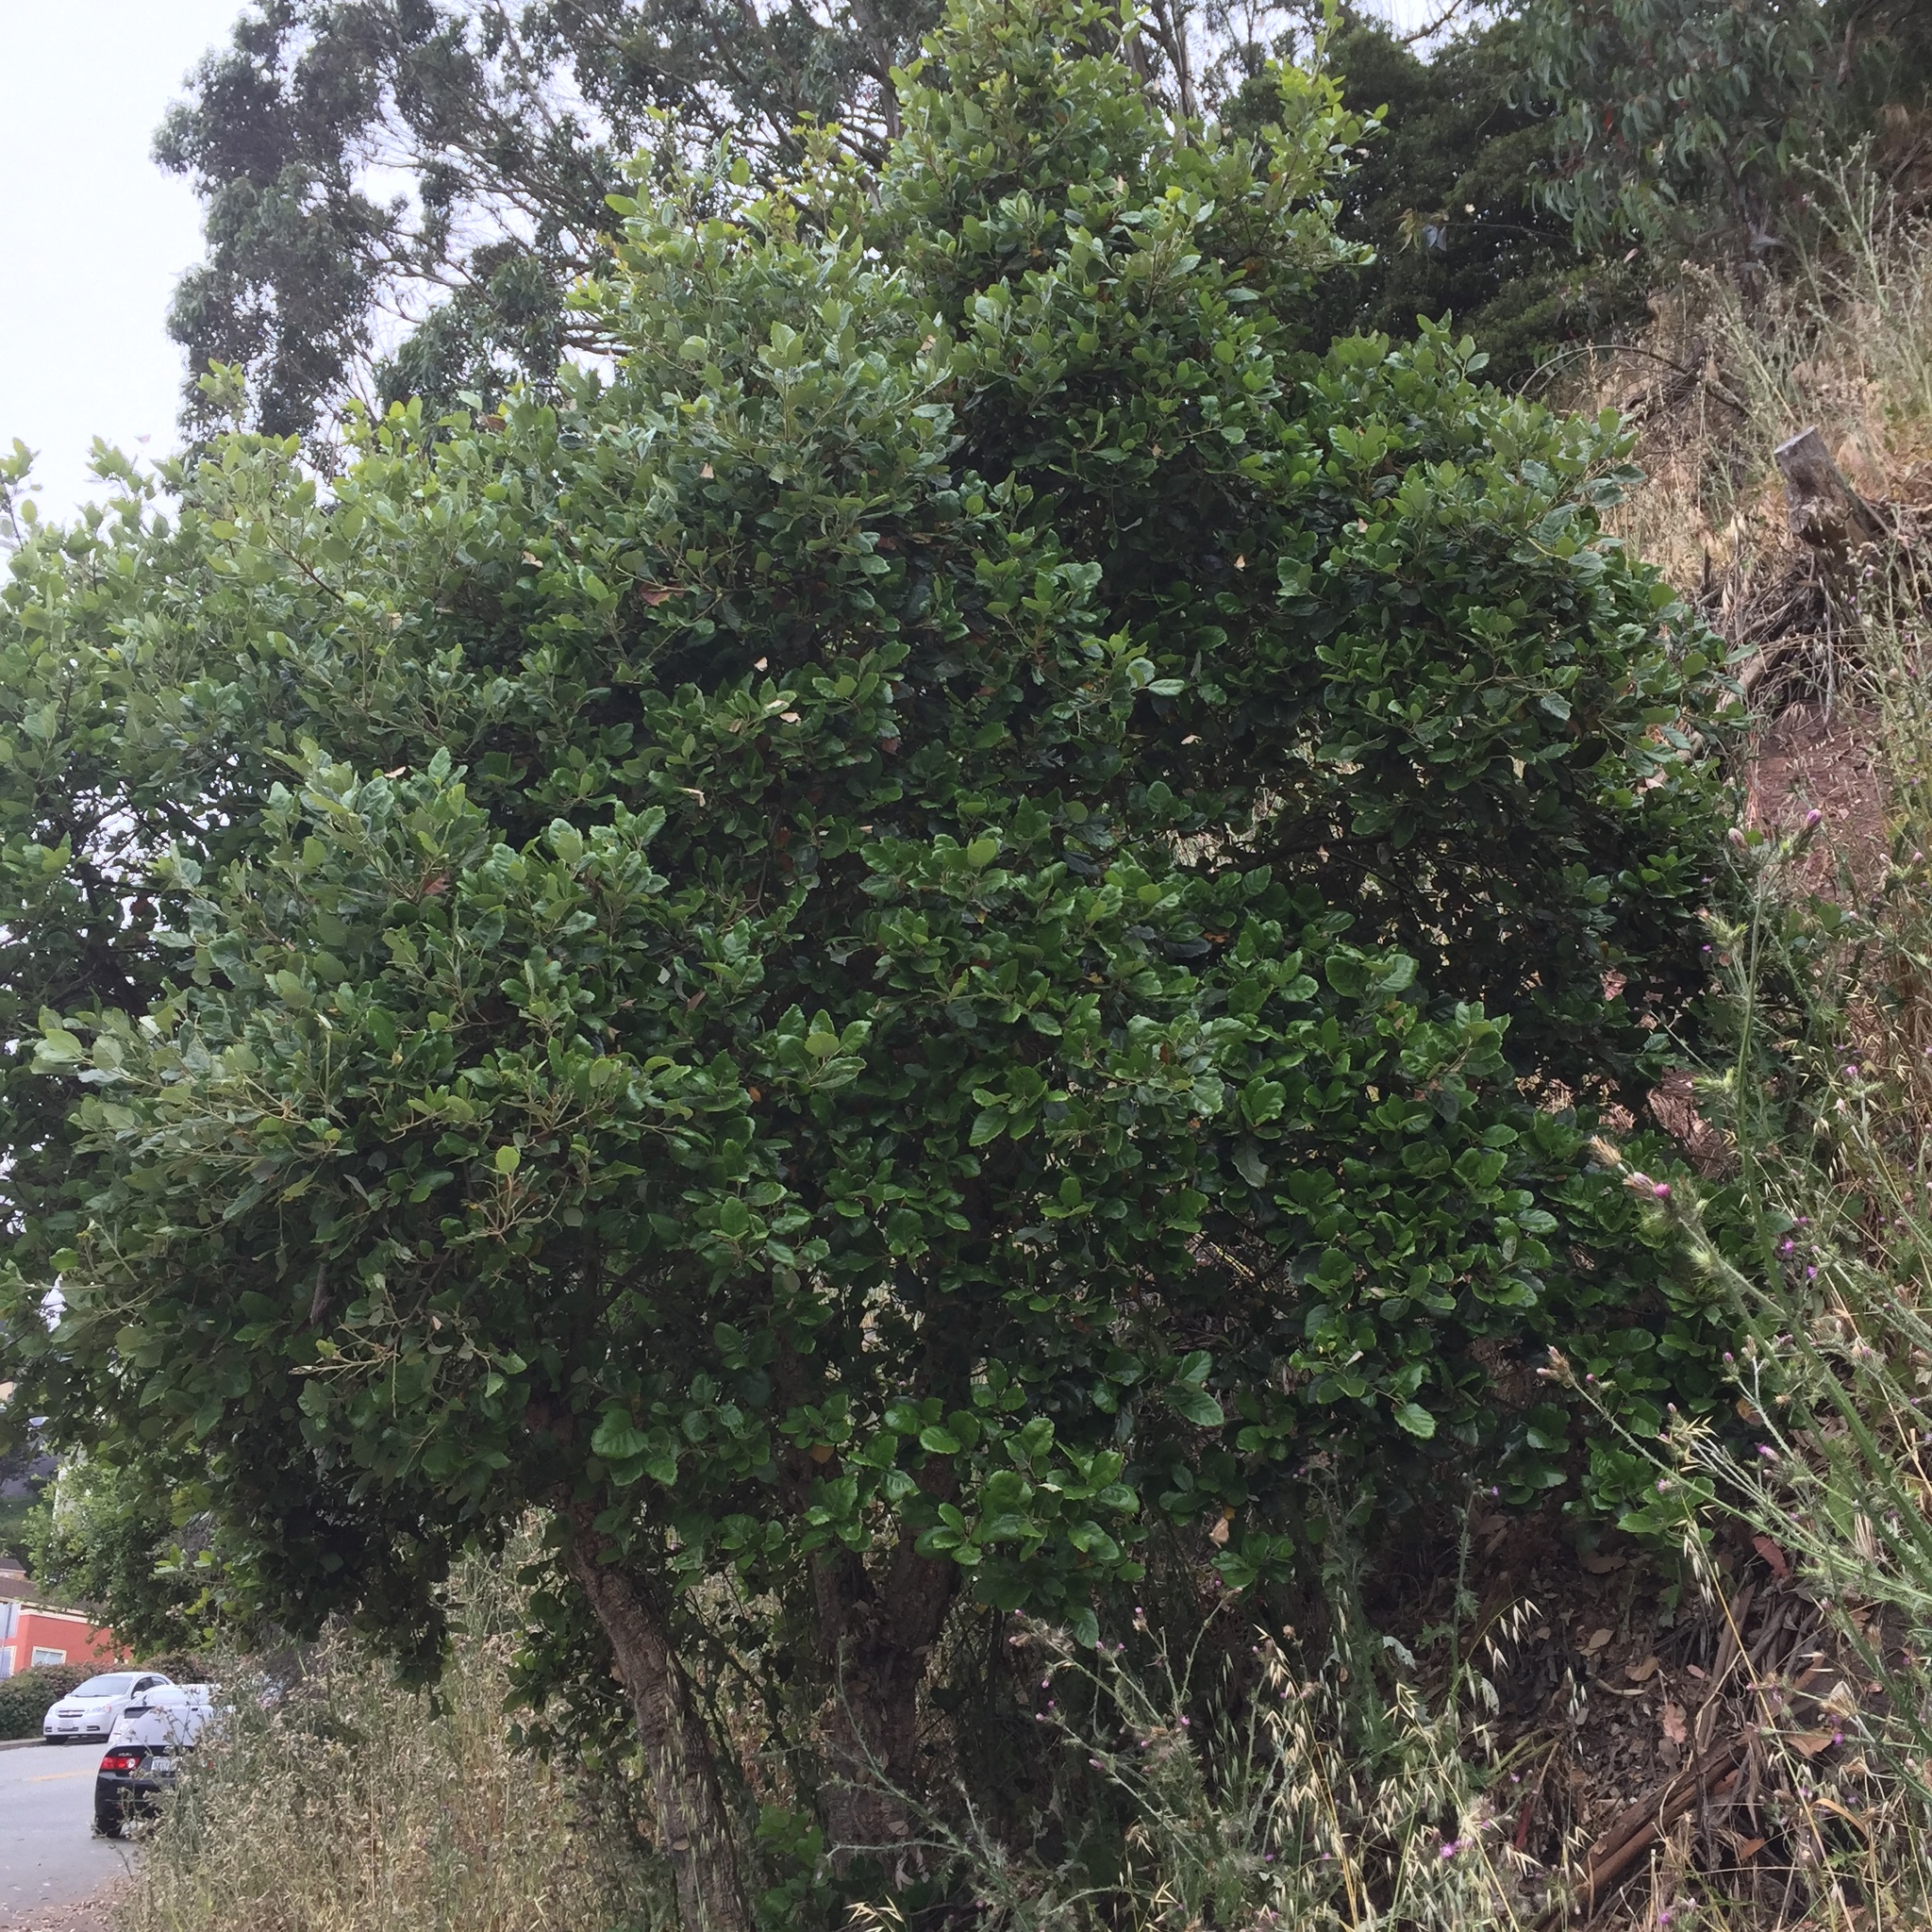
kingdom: Animalia
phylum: Arthropoda
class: Insecta
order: Lepidoptera
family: Notodontidae
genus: Phryganidia
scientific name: Phryganidia californica
